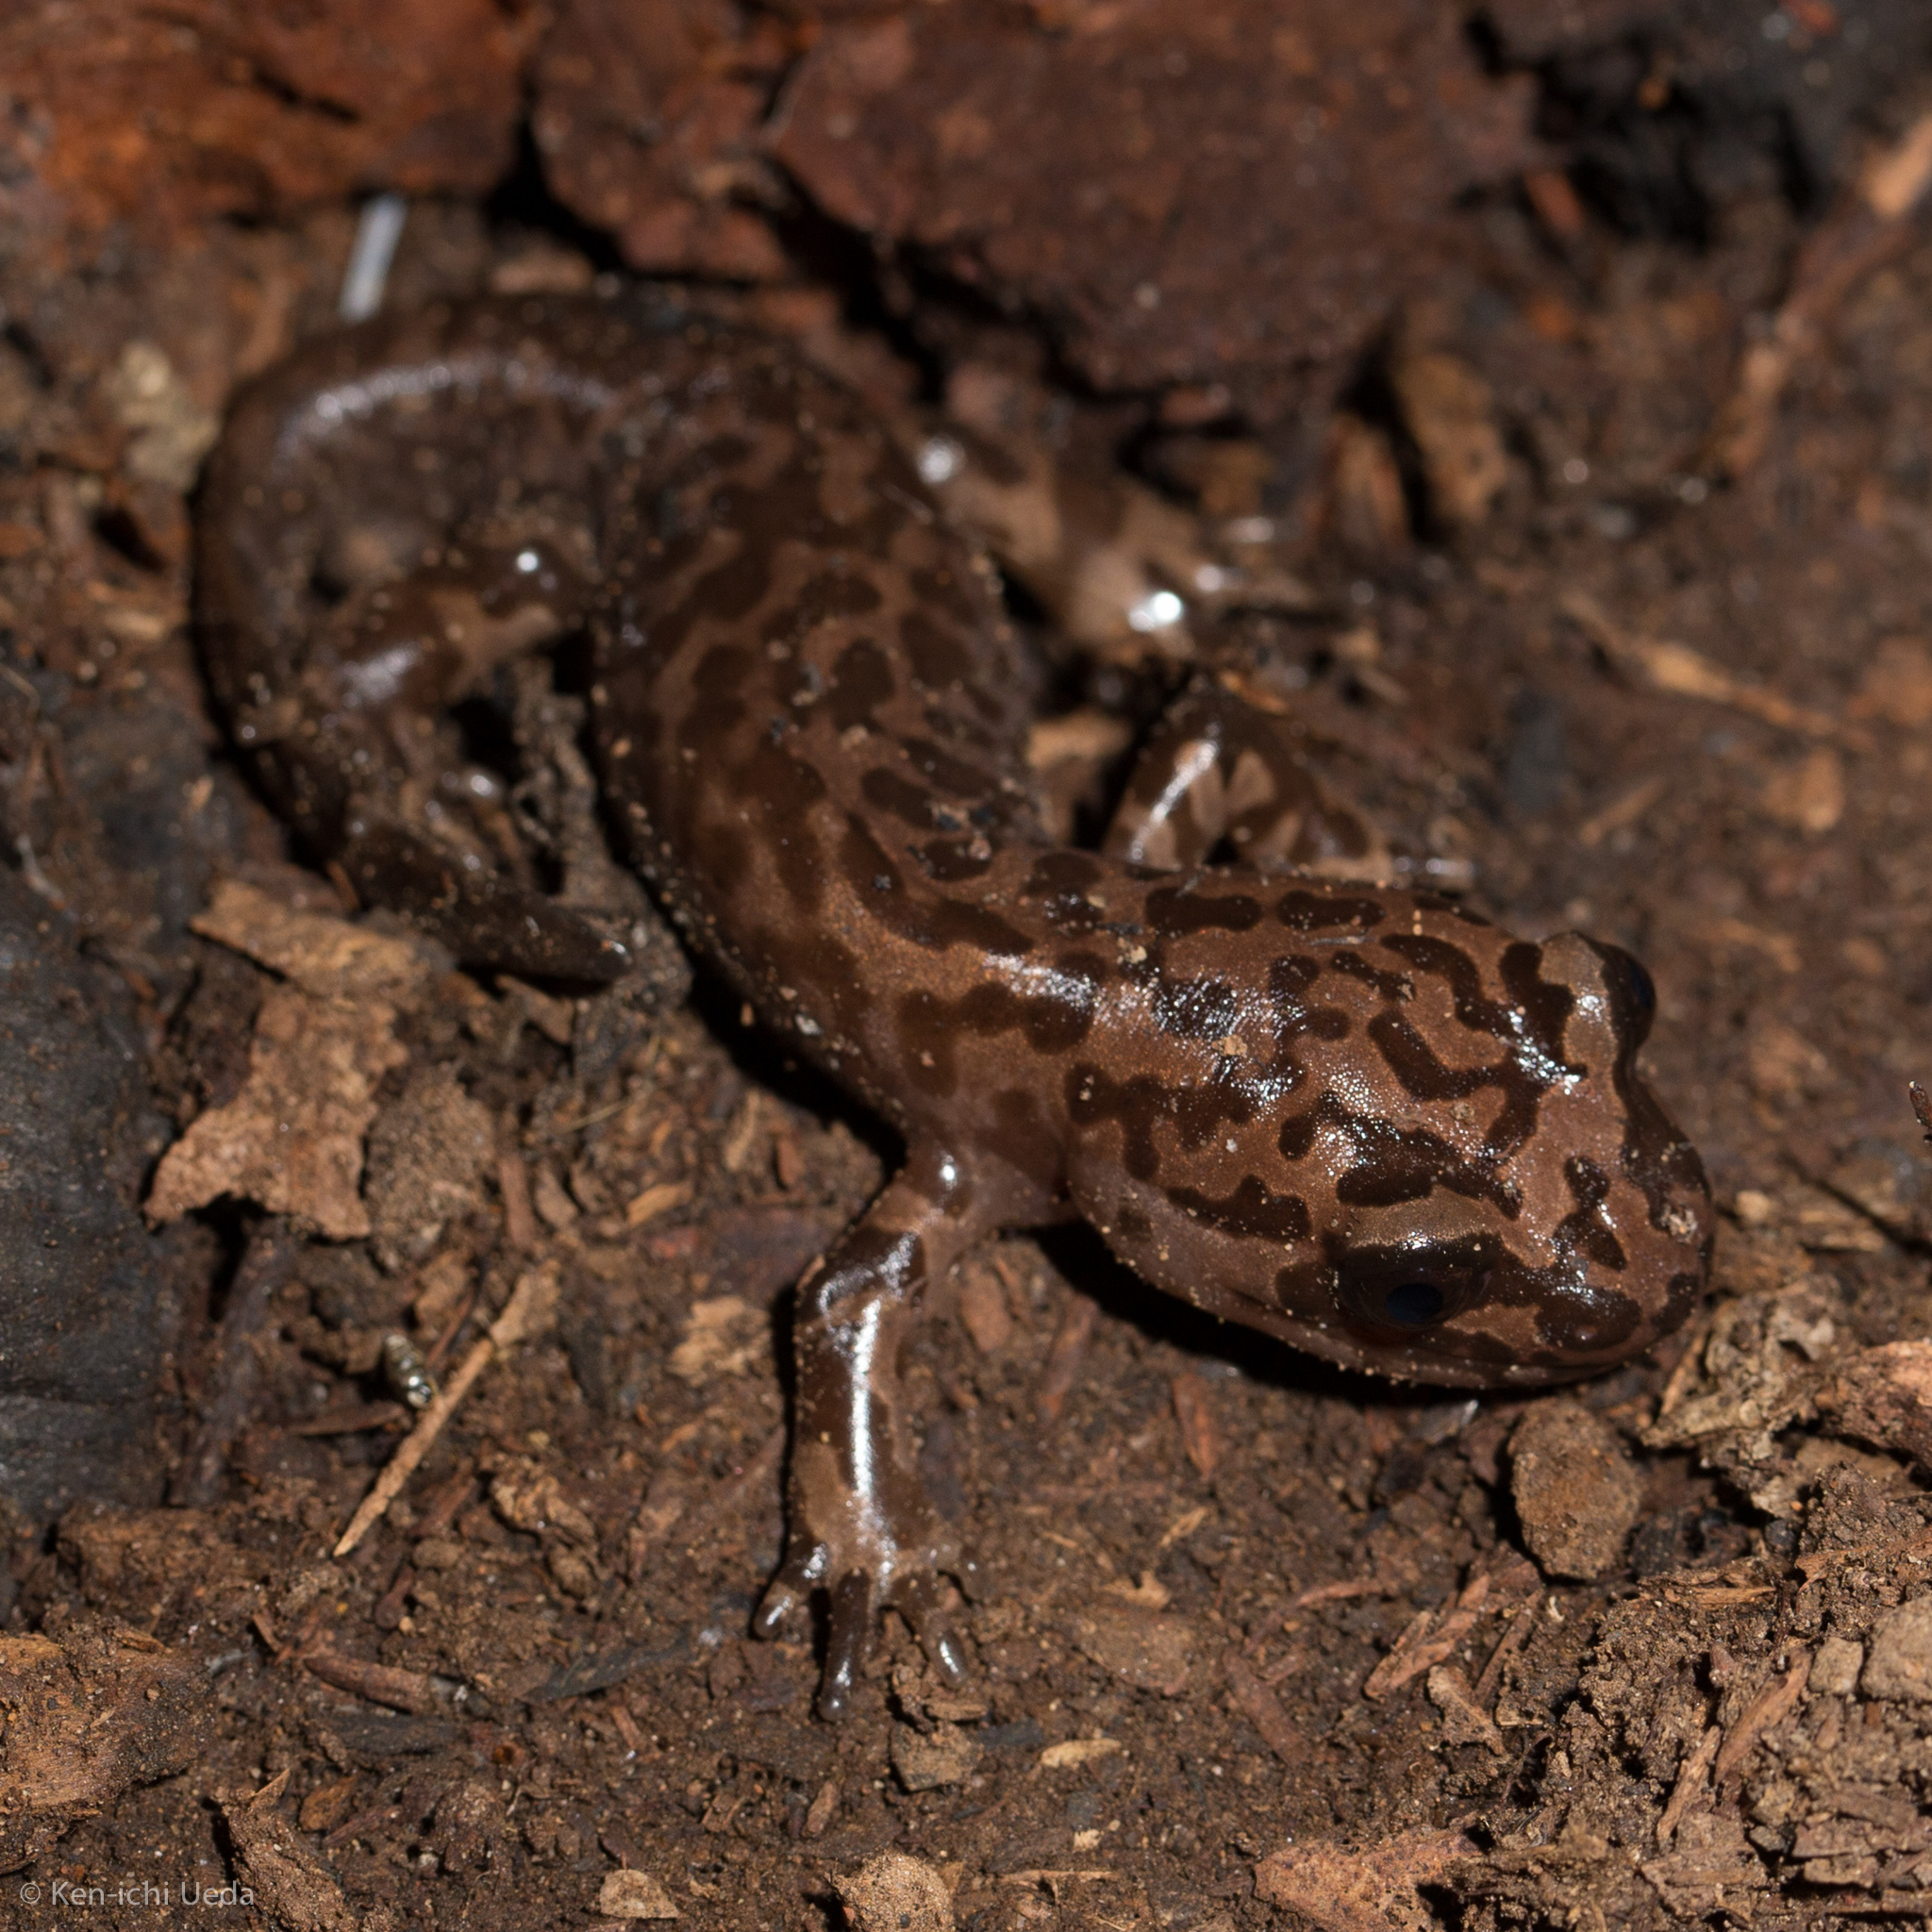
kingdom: Animalia
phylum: Chordata
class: Amphibia
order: Caudata
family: Ambystomatidae
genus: Dicamptodon
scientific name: Dicamptodon ensatus
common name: California giant salamander
